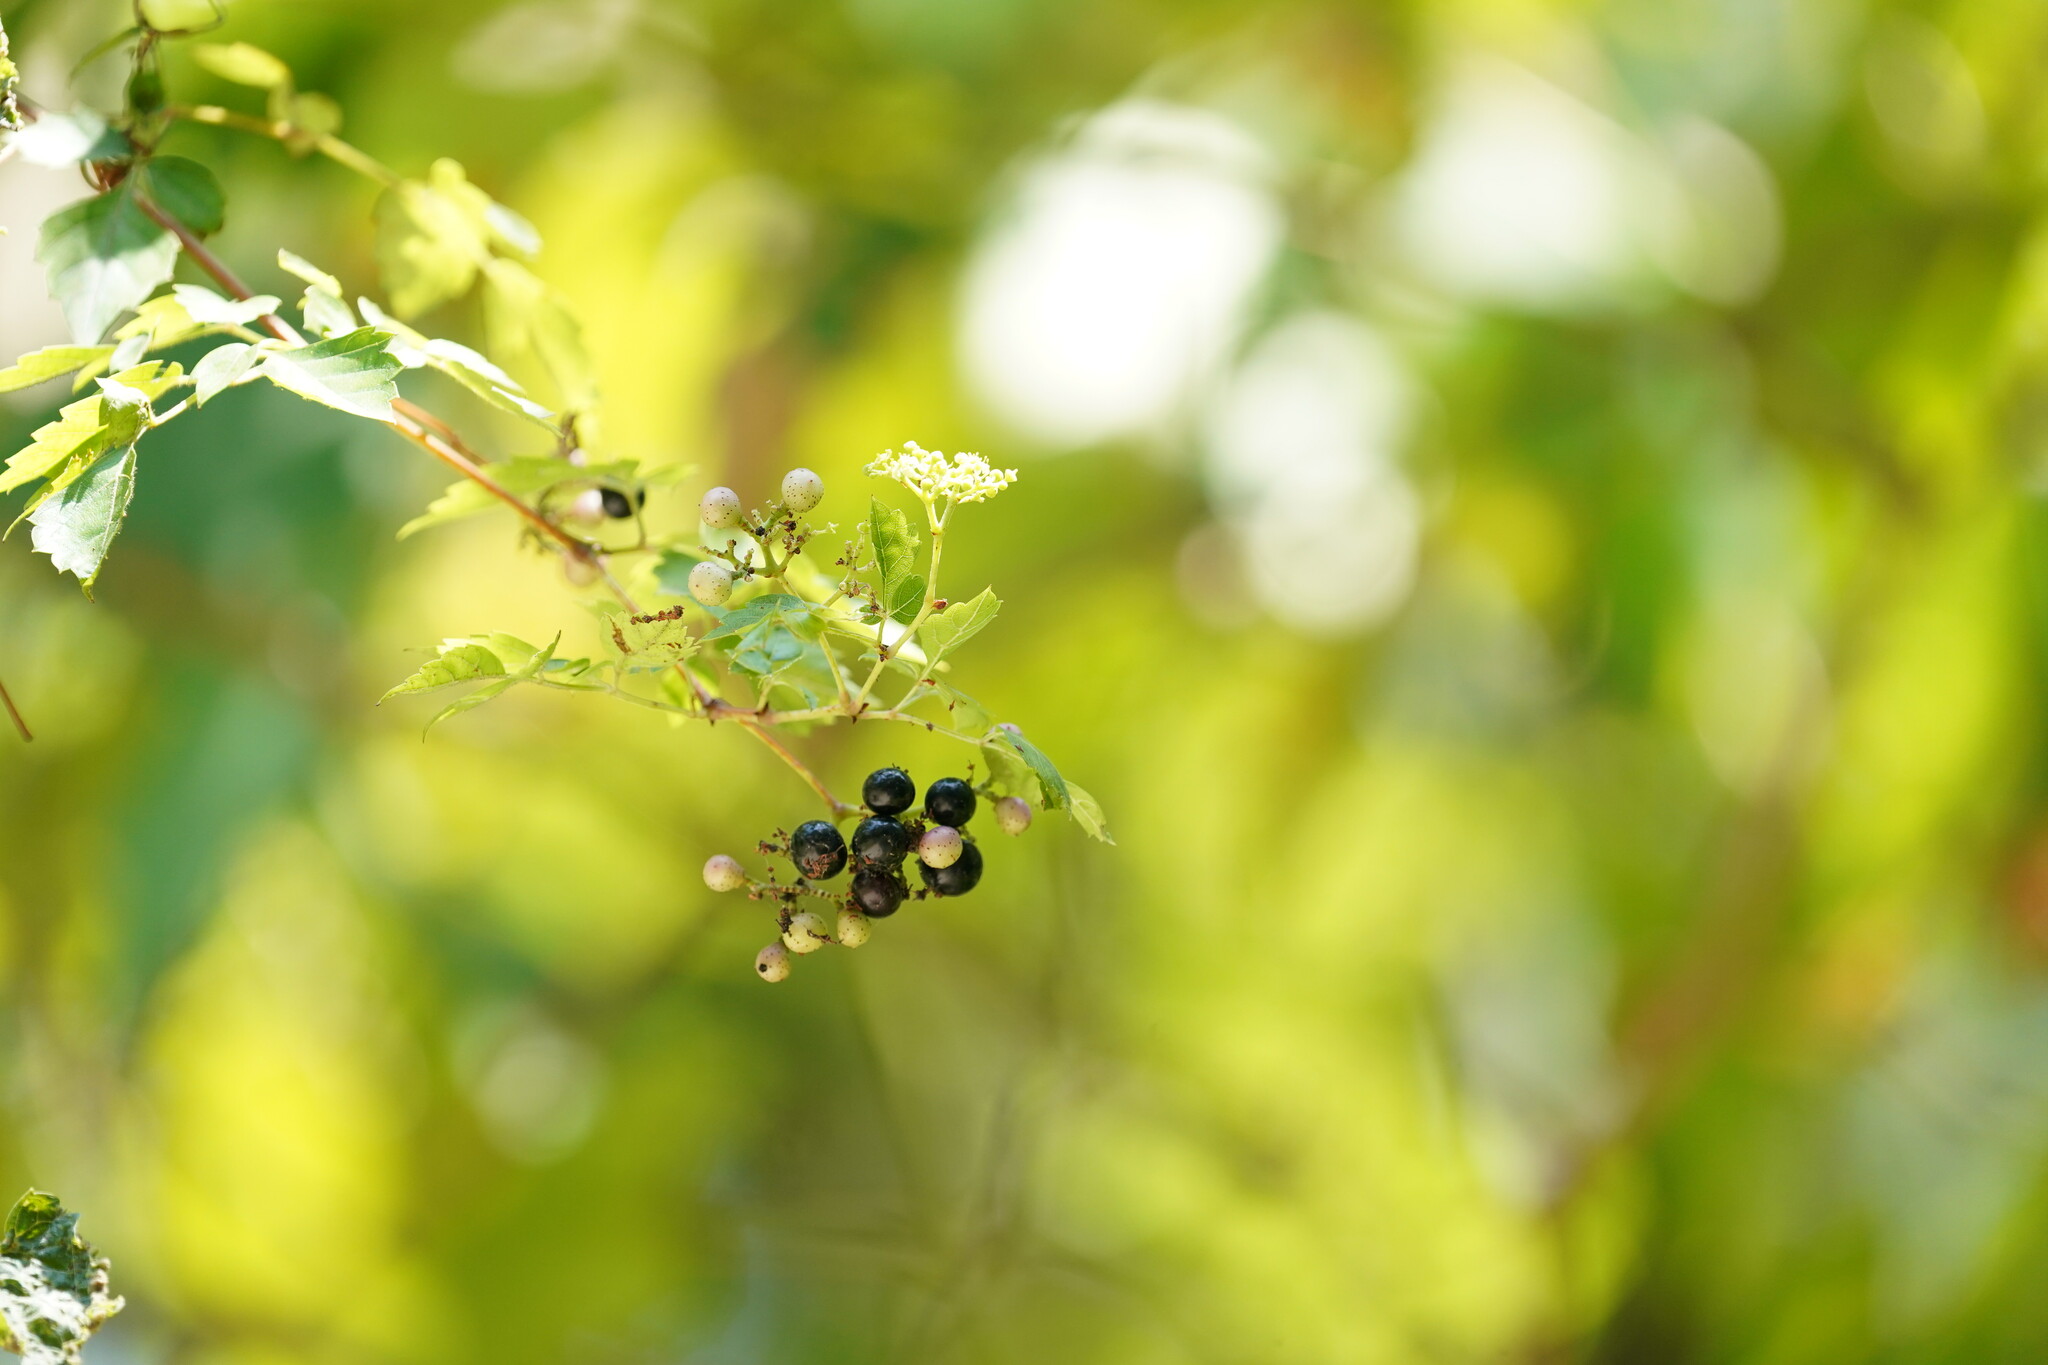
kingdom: Plantae
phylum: Tracheophyta
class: Magnoliopsida
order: Vitales
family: Vitaceae
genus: Nekemias
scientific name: Nekemias arborea
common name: Peppervine
